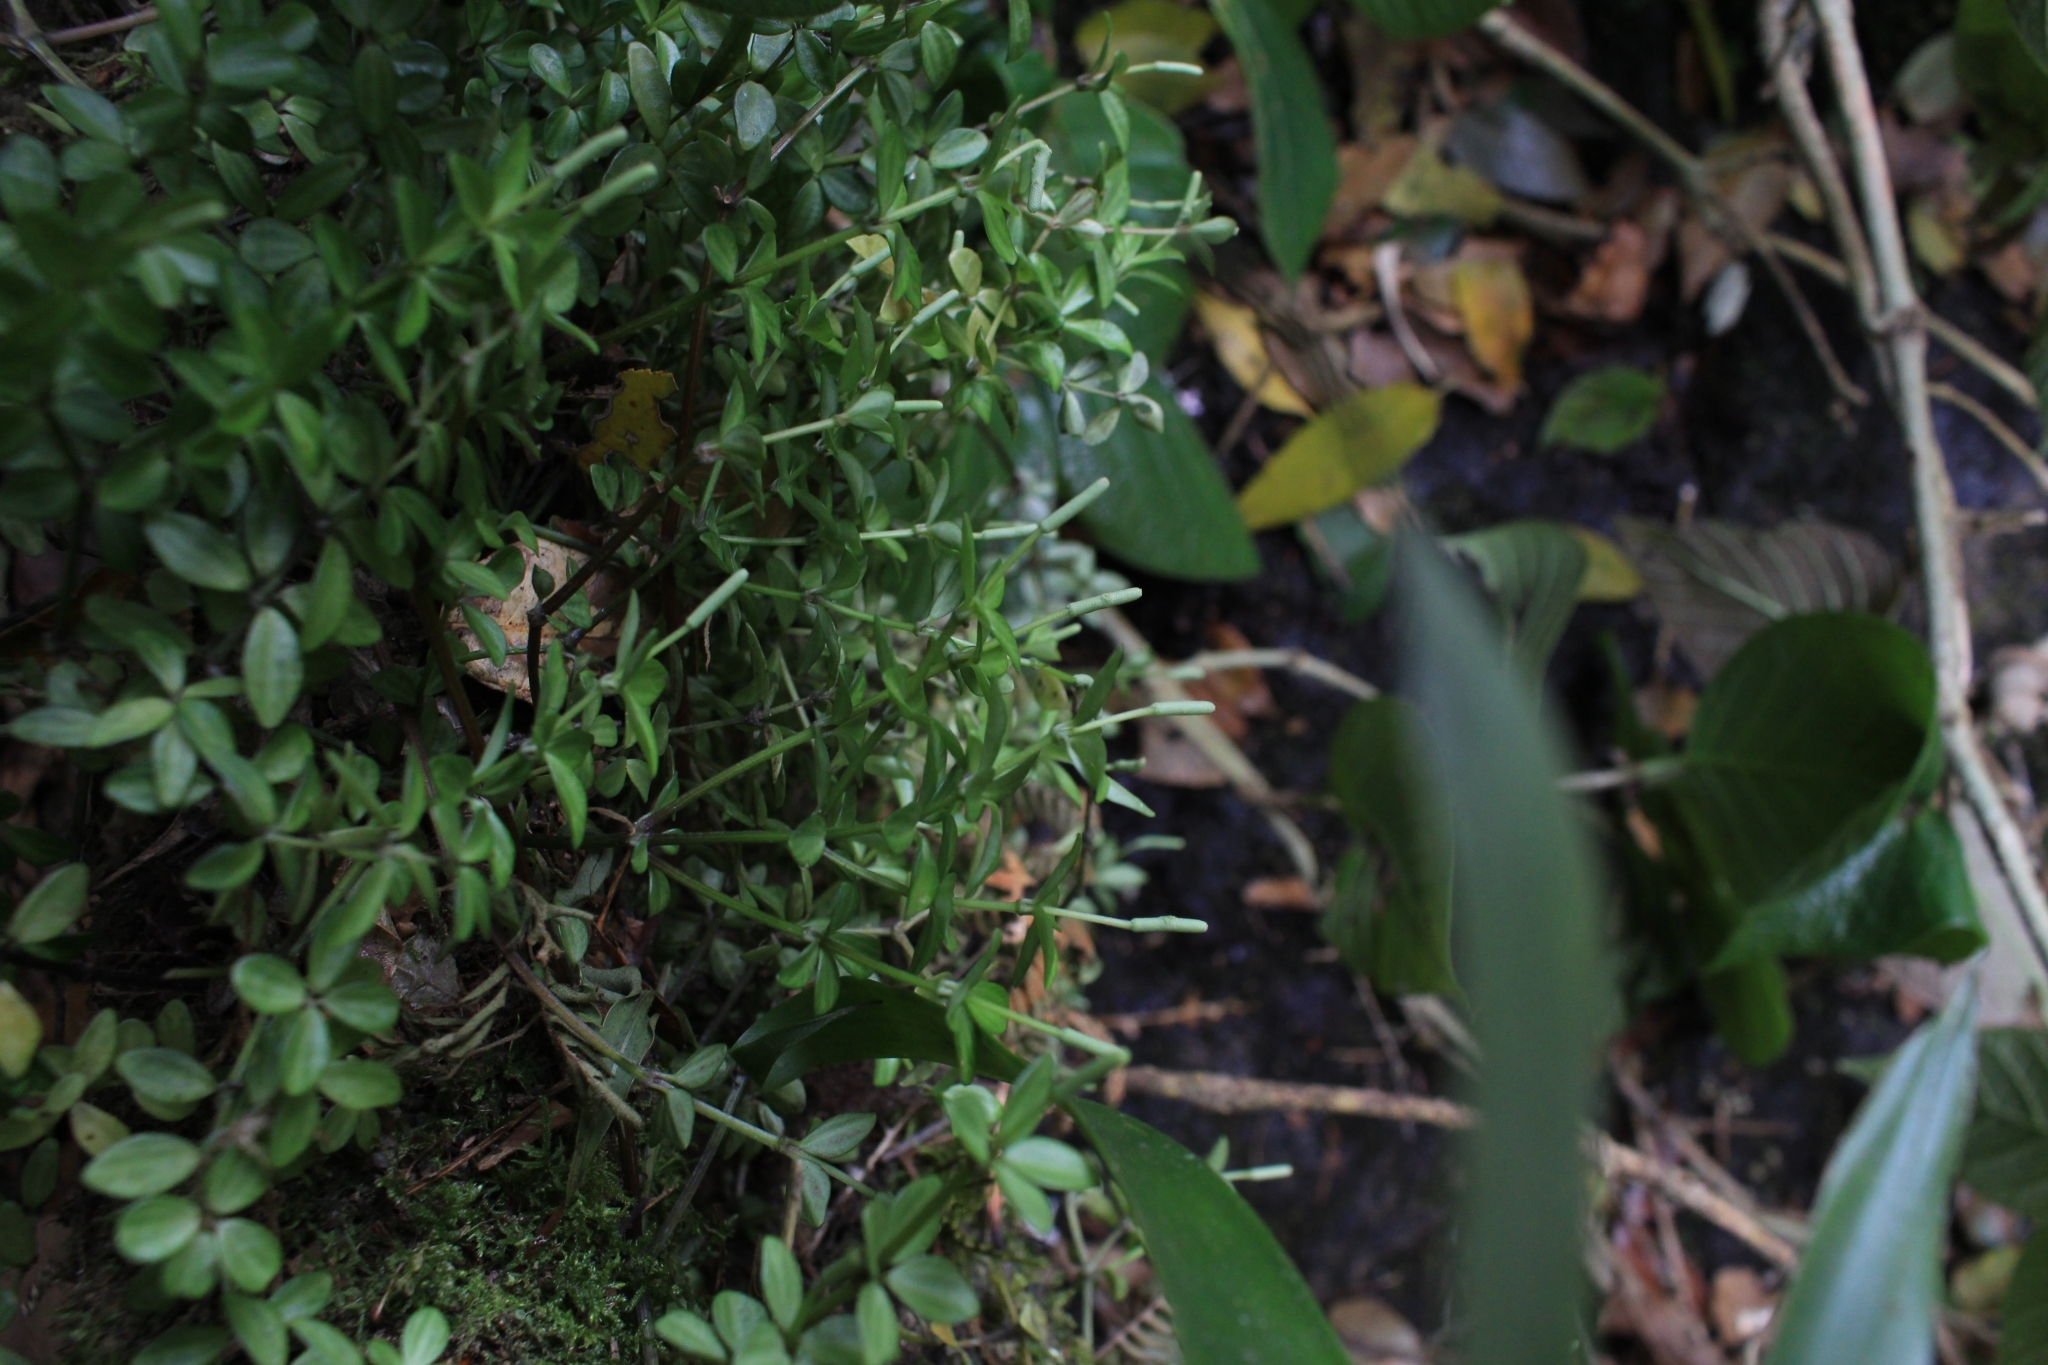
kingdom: Plantae
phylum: Tracheophyta
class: Magnoliopsida
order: Piperales
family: Piperaceae
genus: Peperomia
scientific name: Peperomia tetraphylla
